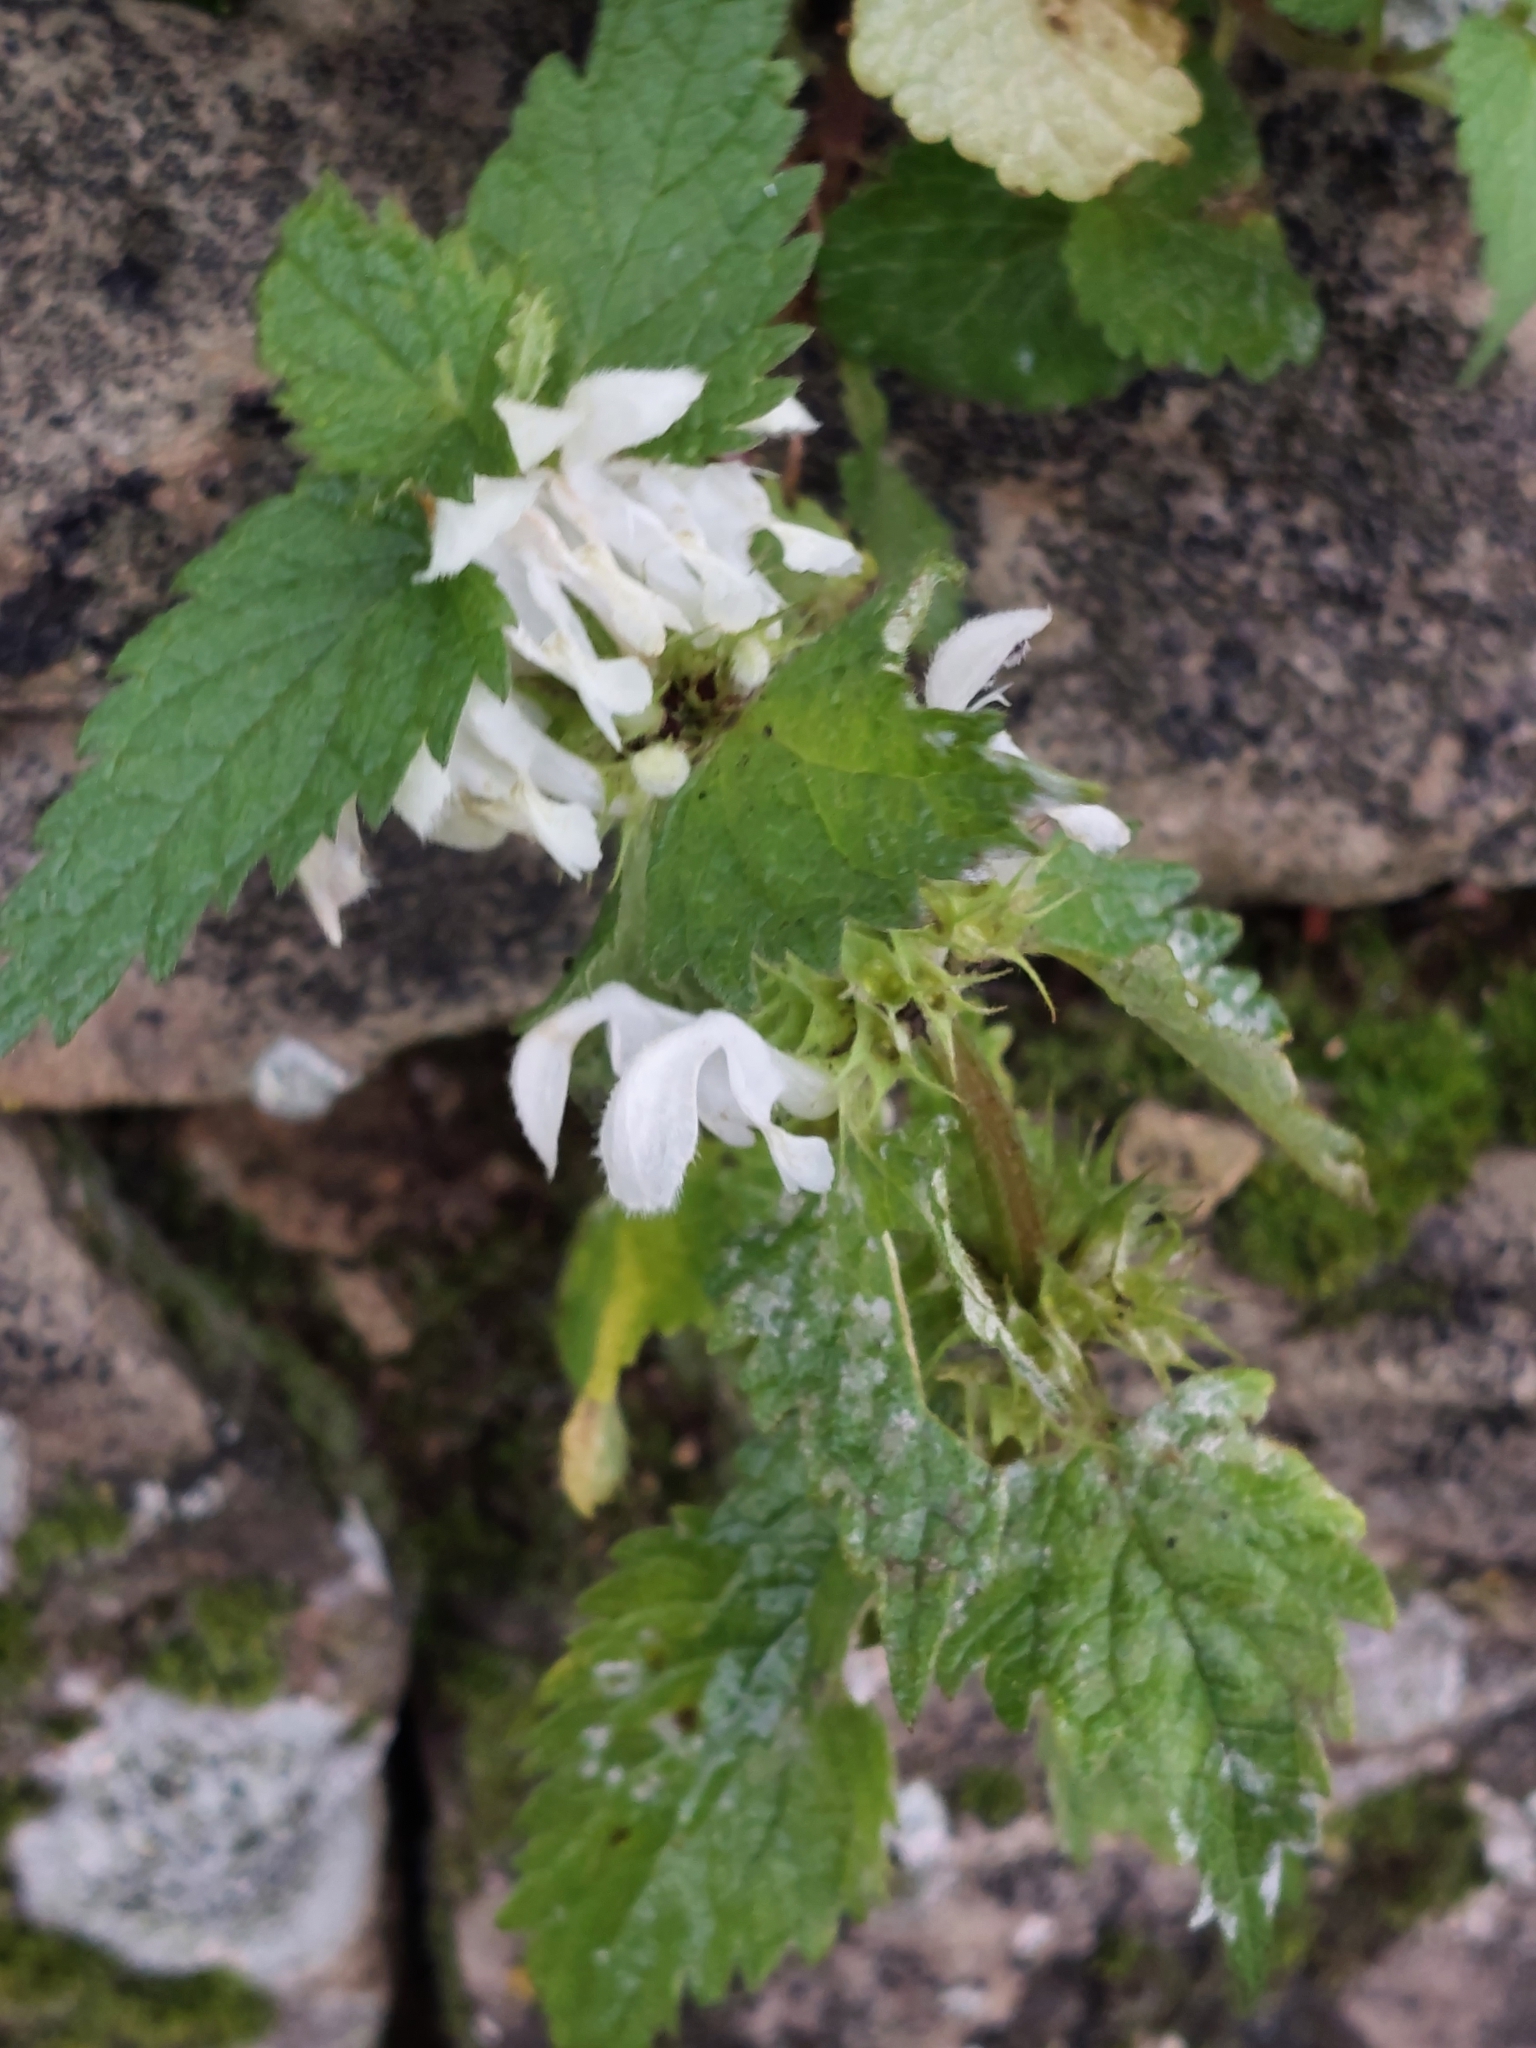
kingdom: Plantae
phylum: Tracheophyta
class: Magnoliopsida
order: Lamiales
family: Lamiaceae
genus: Lamium
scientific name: Lamium album
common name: White dead-nettle
